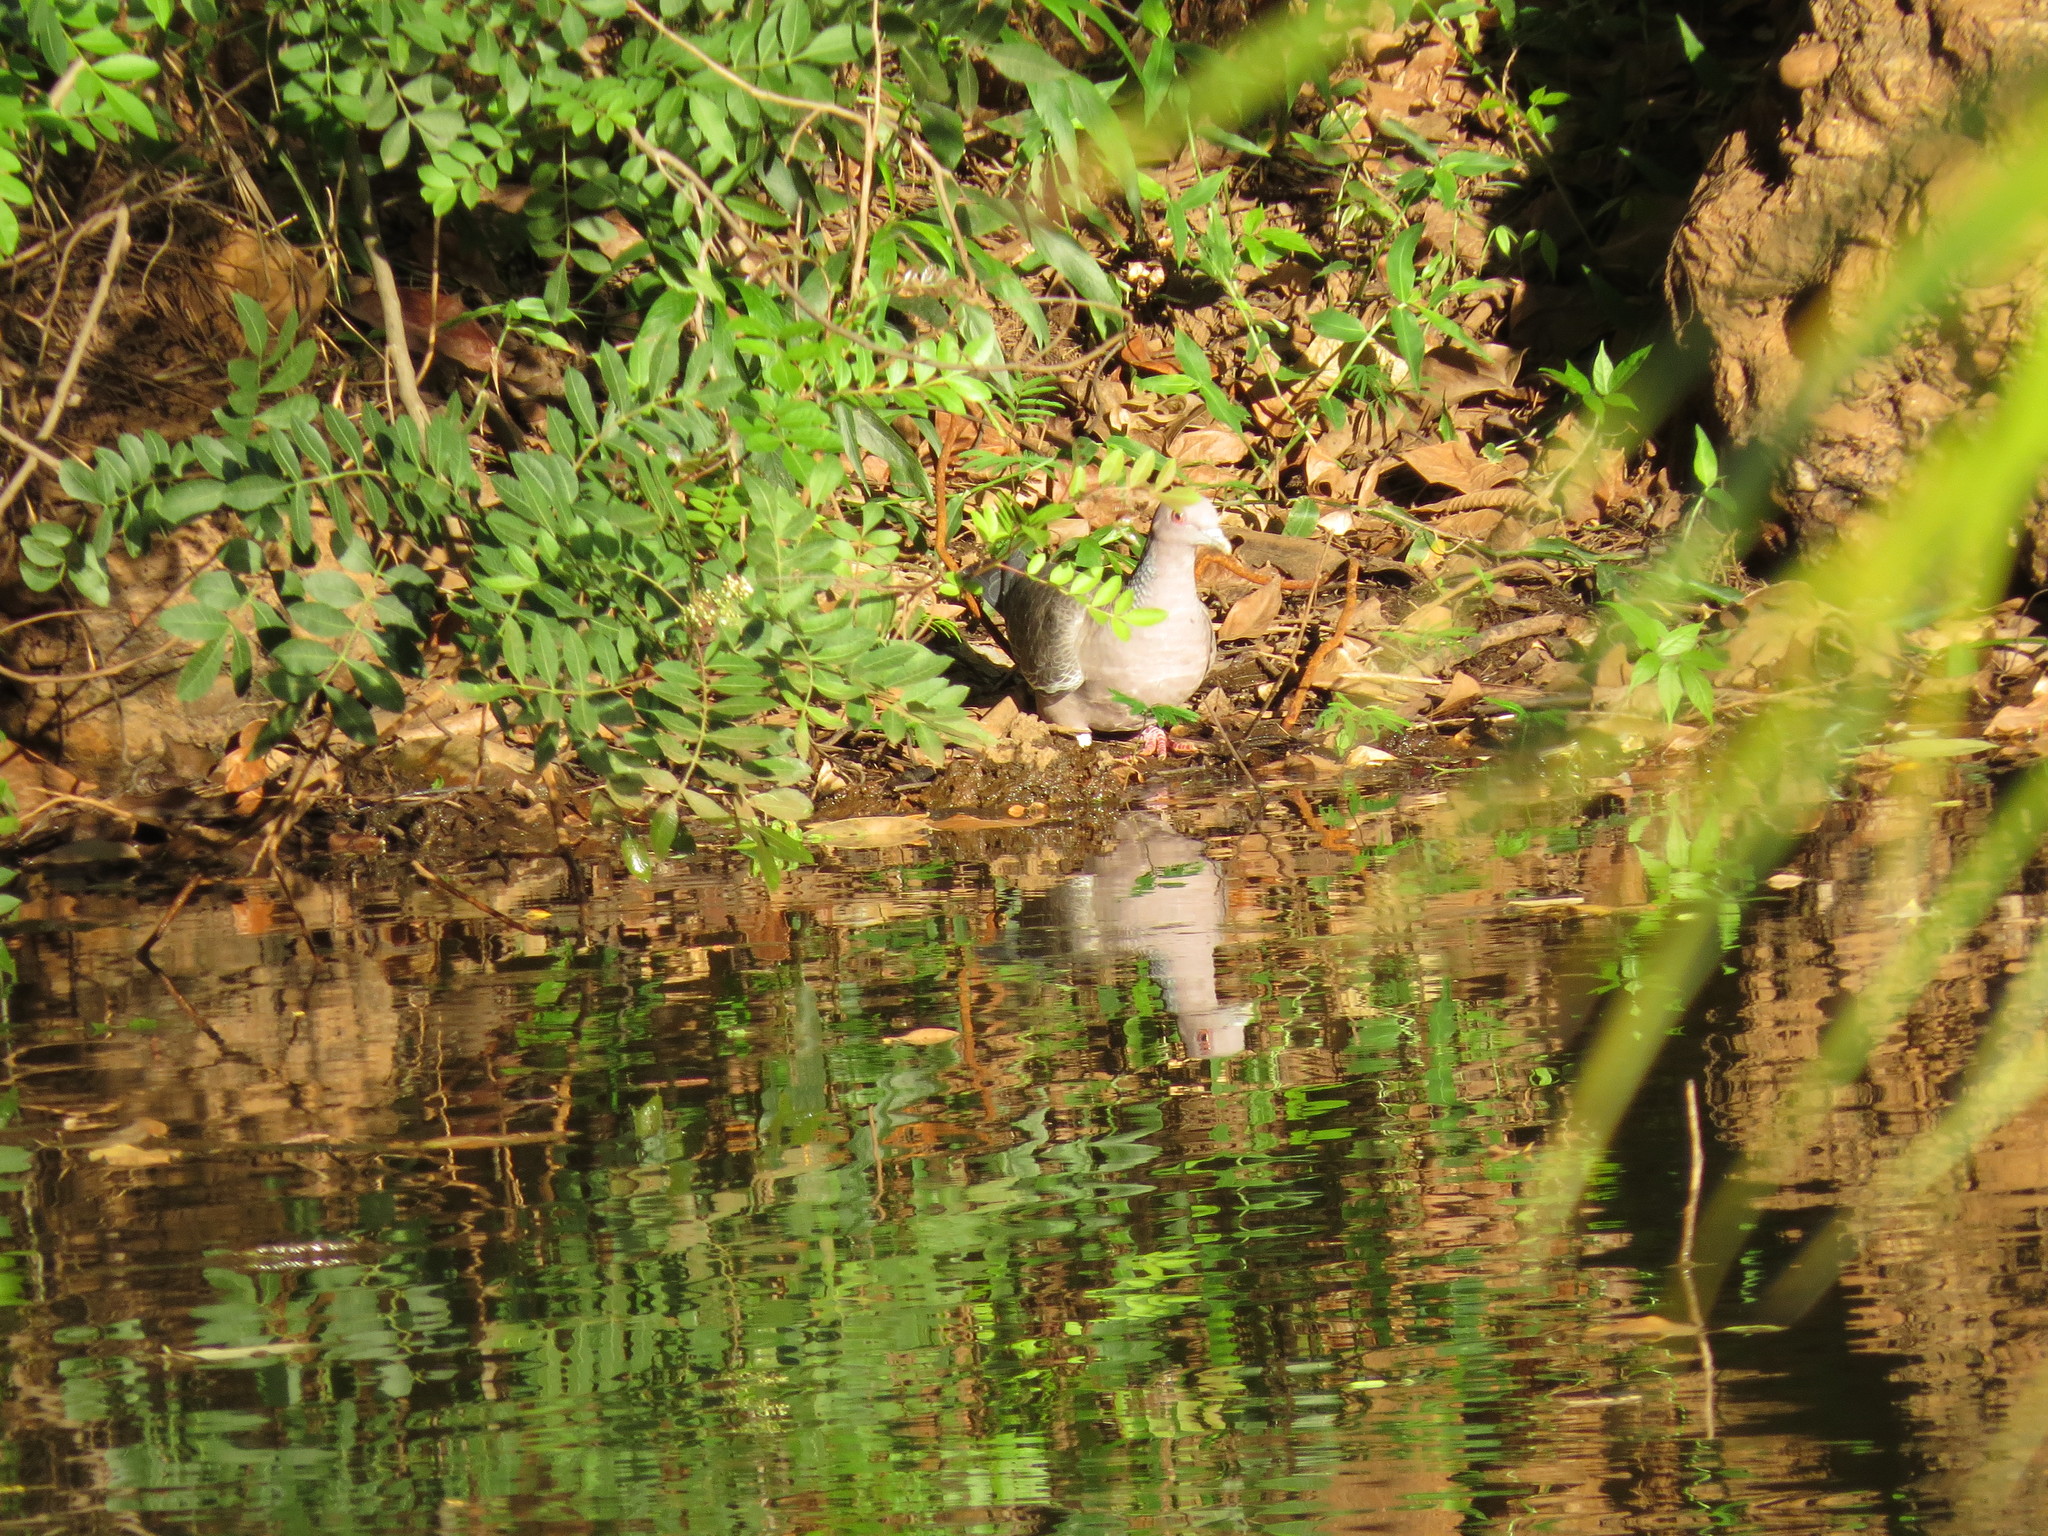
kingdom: Animalia
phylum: Chordata
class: Aves
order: Columbiformes
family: Columbidae
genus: Patagioenas
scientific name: Patagioenas picazuro
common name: Picazuro pigeon
